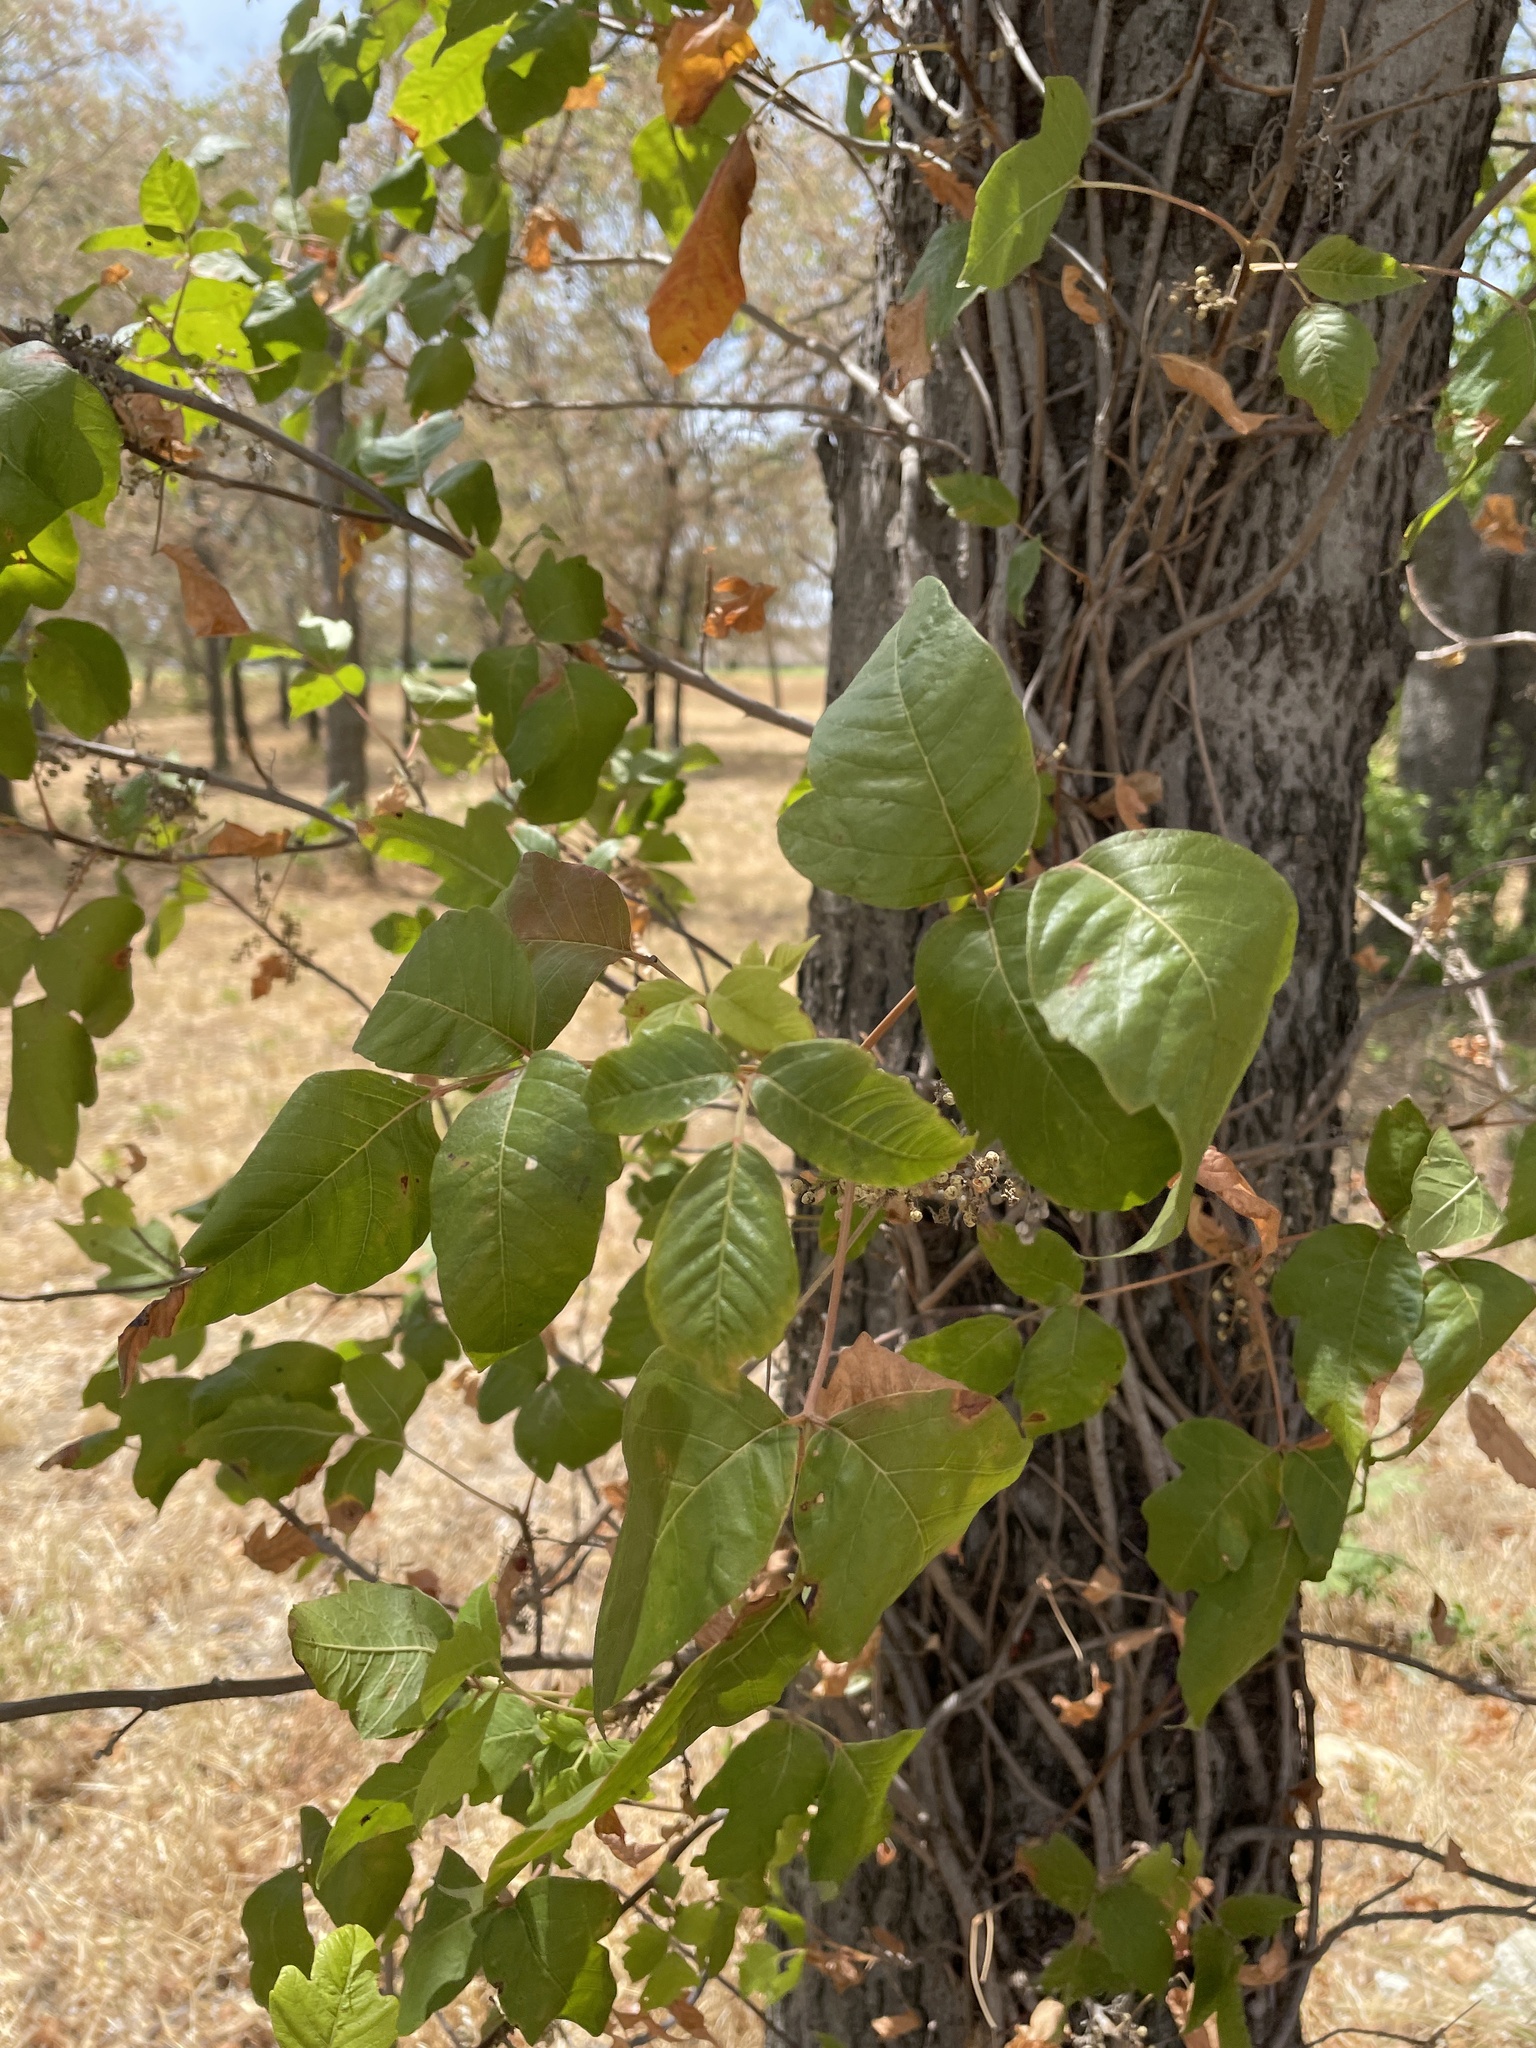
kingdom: Plantae
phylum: Tracheophyta
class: Magnoliopsida
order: Sapindales
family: Anacardiaceae
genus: Toxicodendron
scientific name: Toxicodendron radicans
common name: Poison ivy
